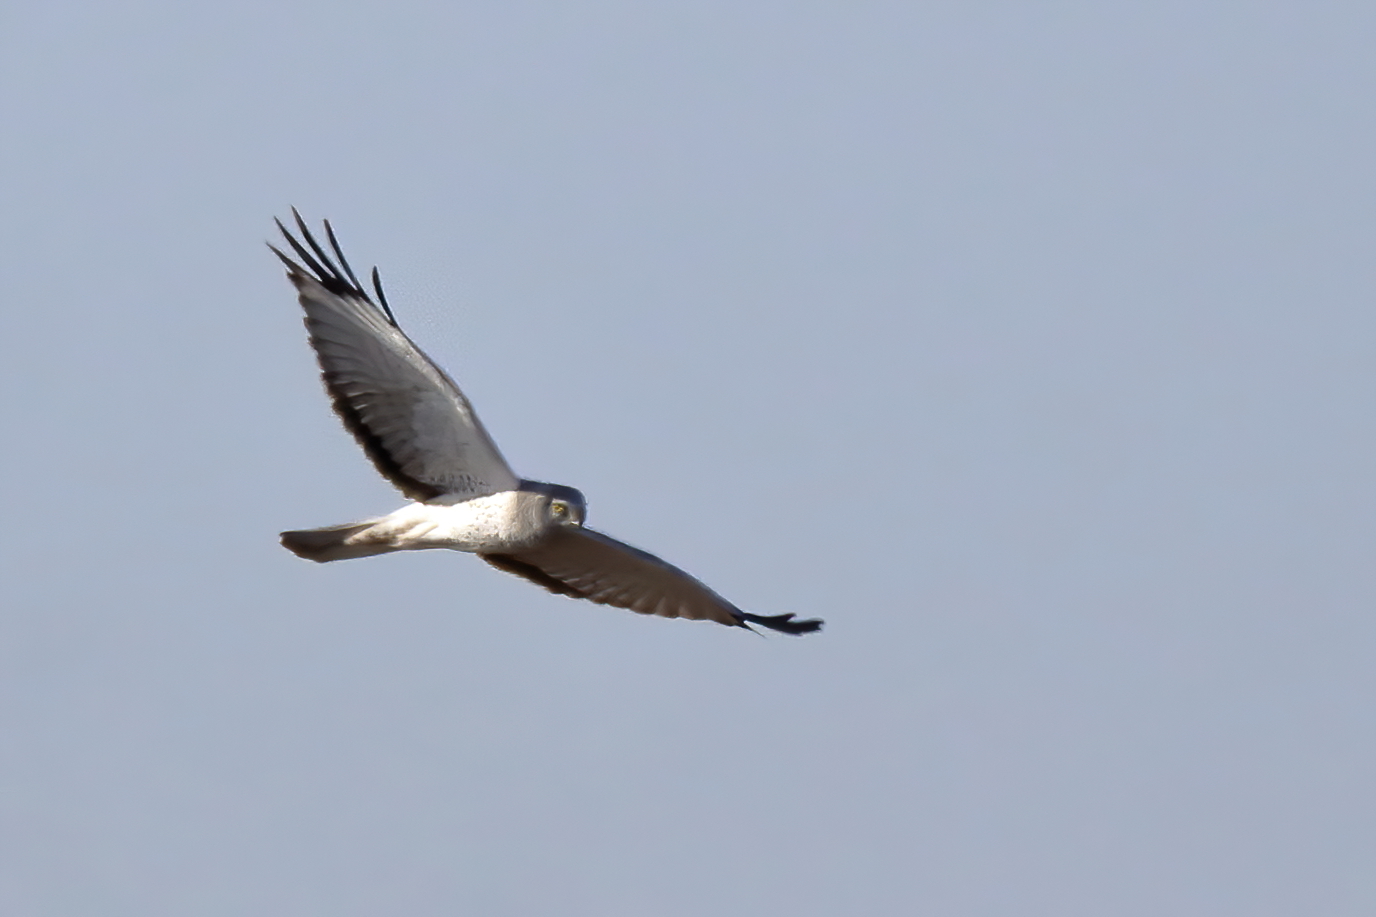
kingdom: Animalia
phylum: Chordata
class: Aves
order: Accipitriformes
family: Accipitridae
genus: Circus
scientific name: Circus cyaneus
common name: Hen harrier
